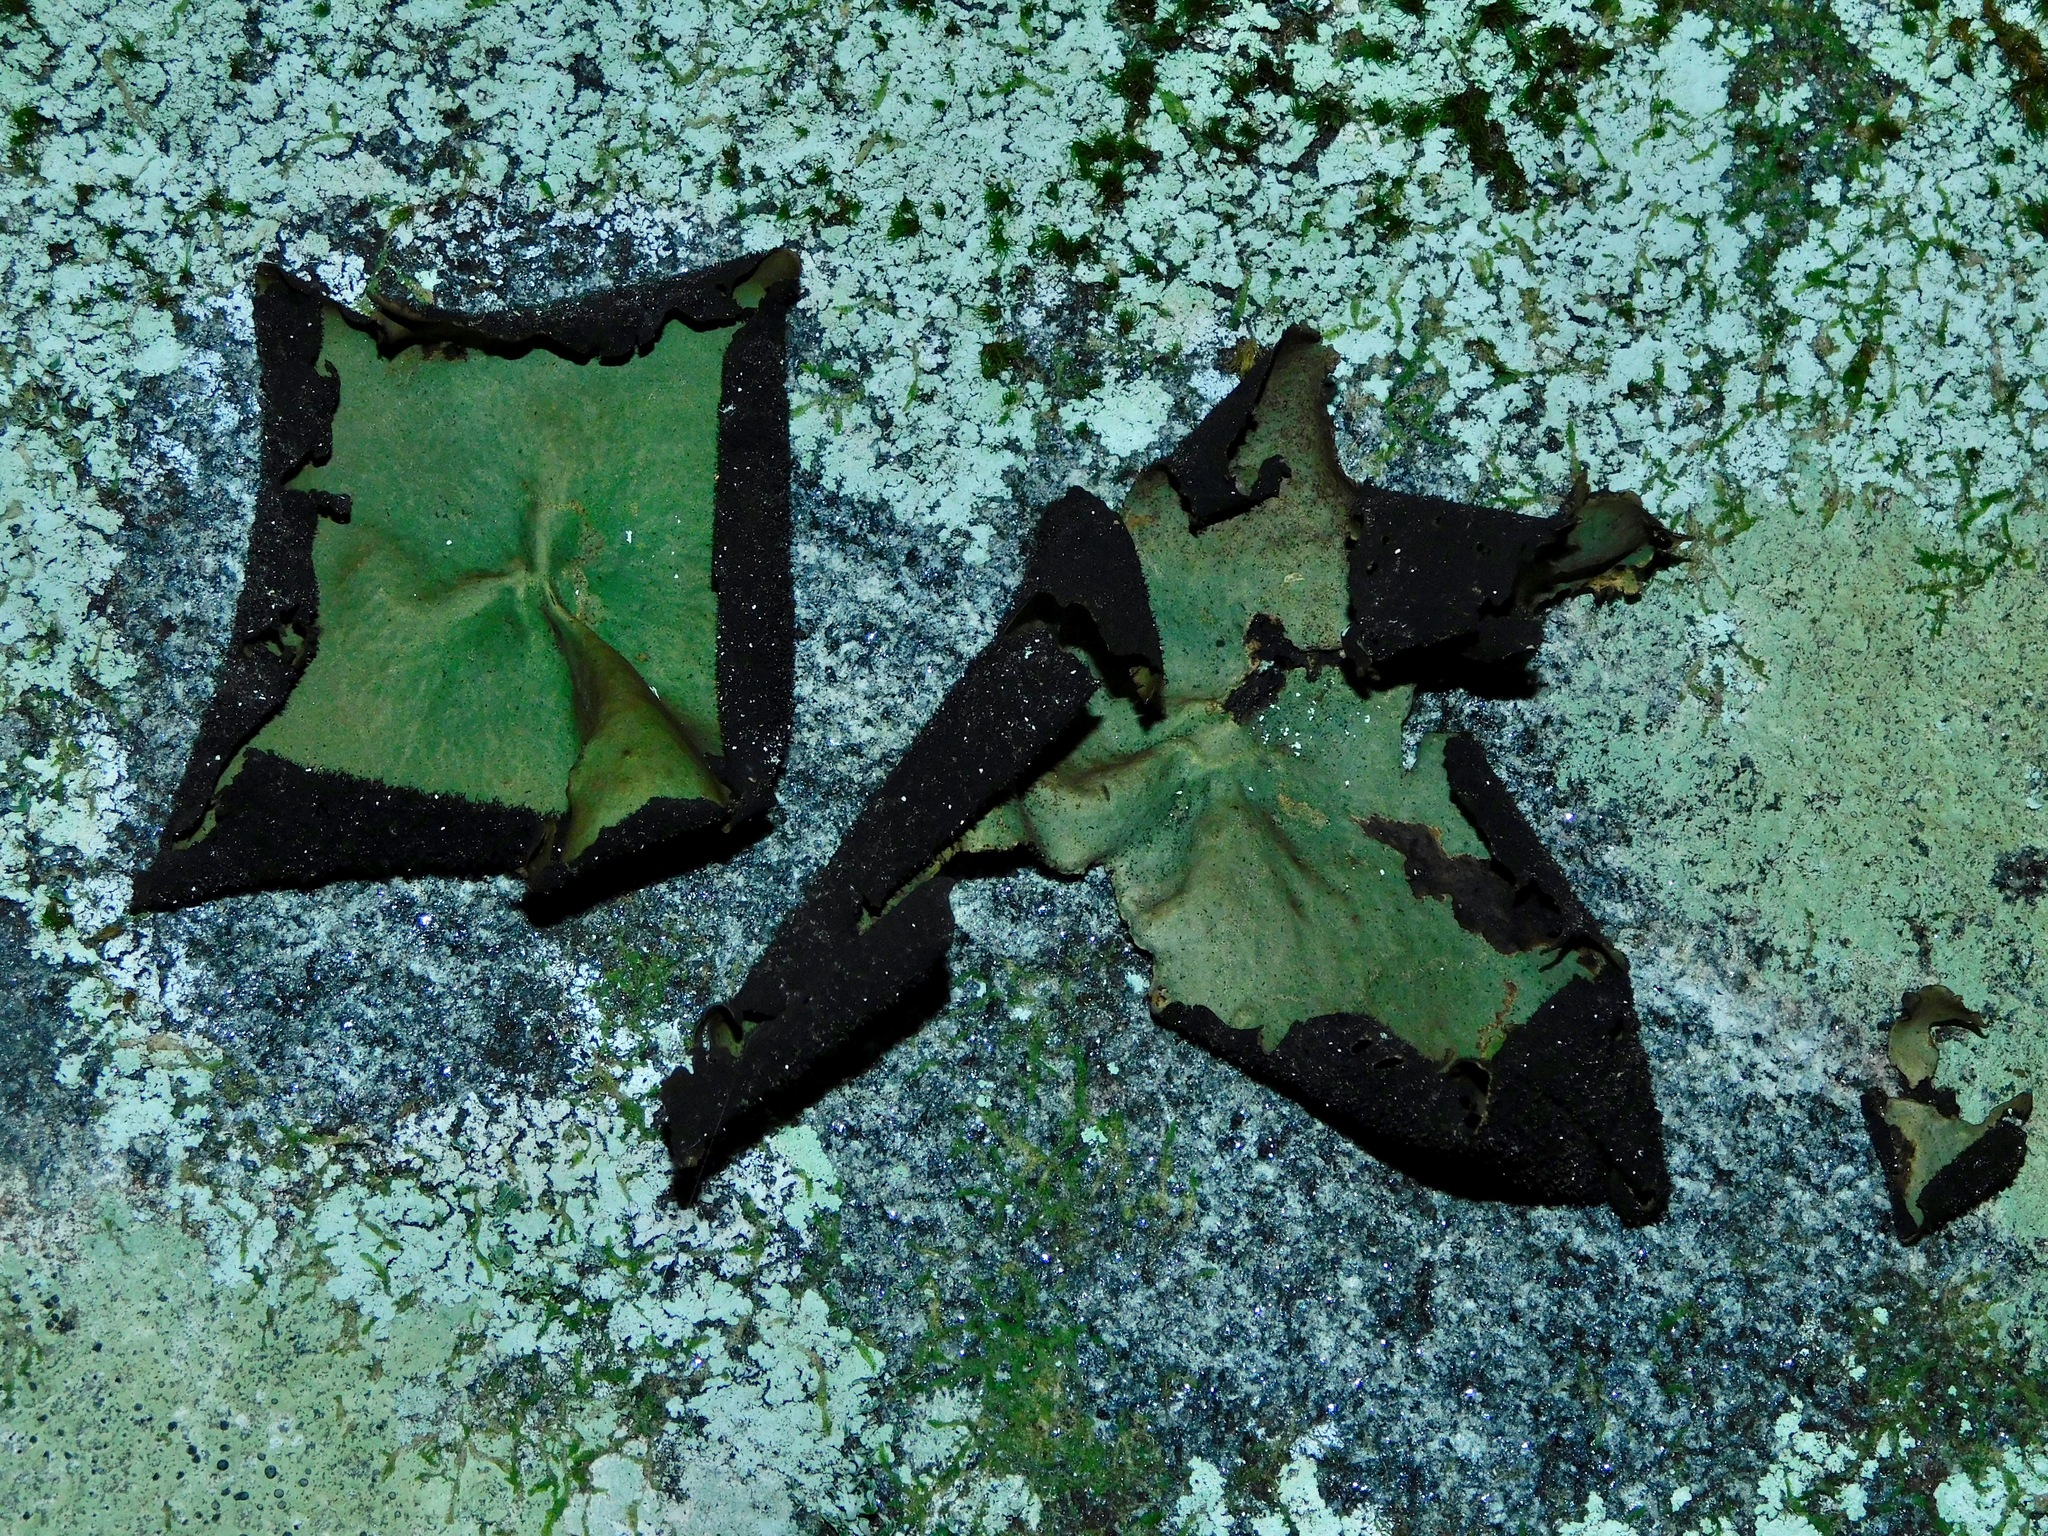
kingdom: Fungi
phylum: Ascomycota
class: Lecanoromycetes
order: Umbilicariales
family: Umbilicariaceae
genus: Umbilicaria
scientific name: Umbilicaria mammulata
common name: Smooth rock tripe
